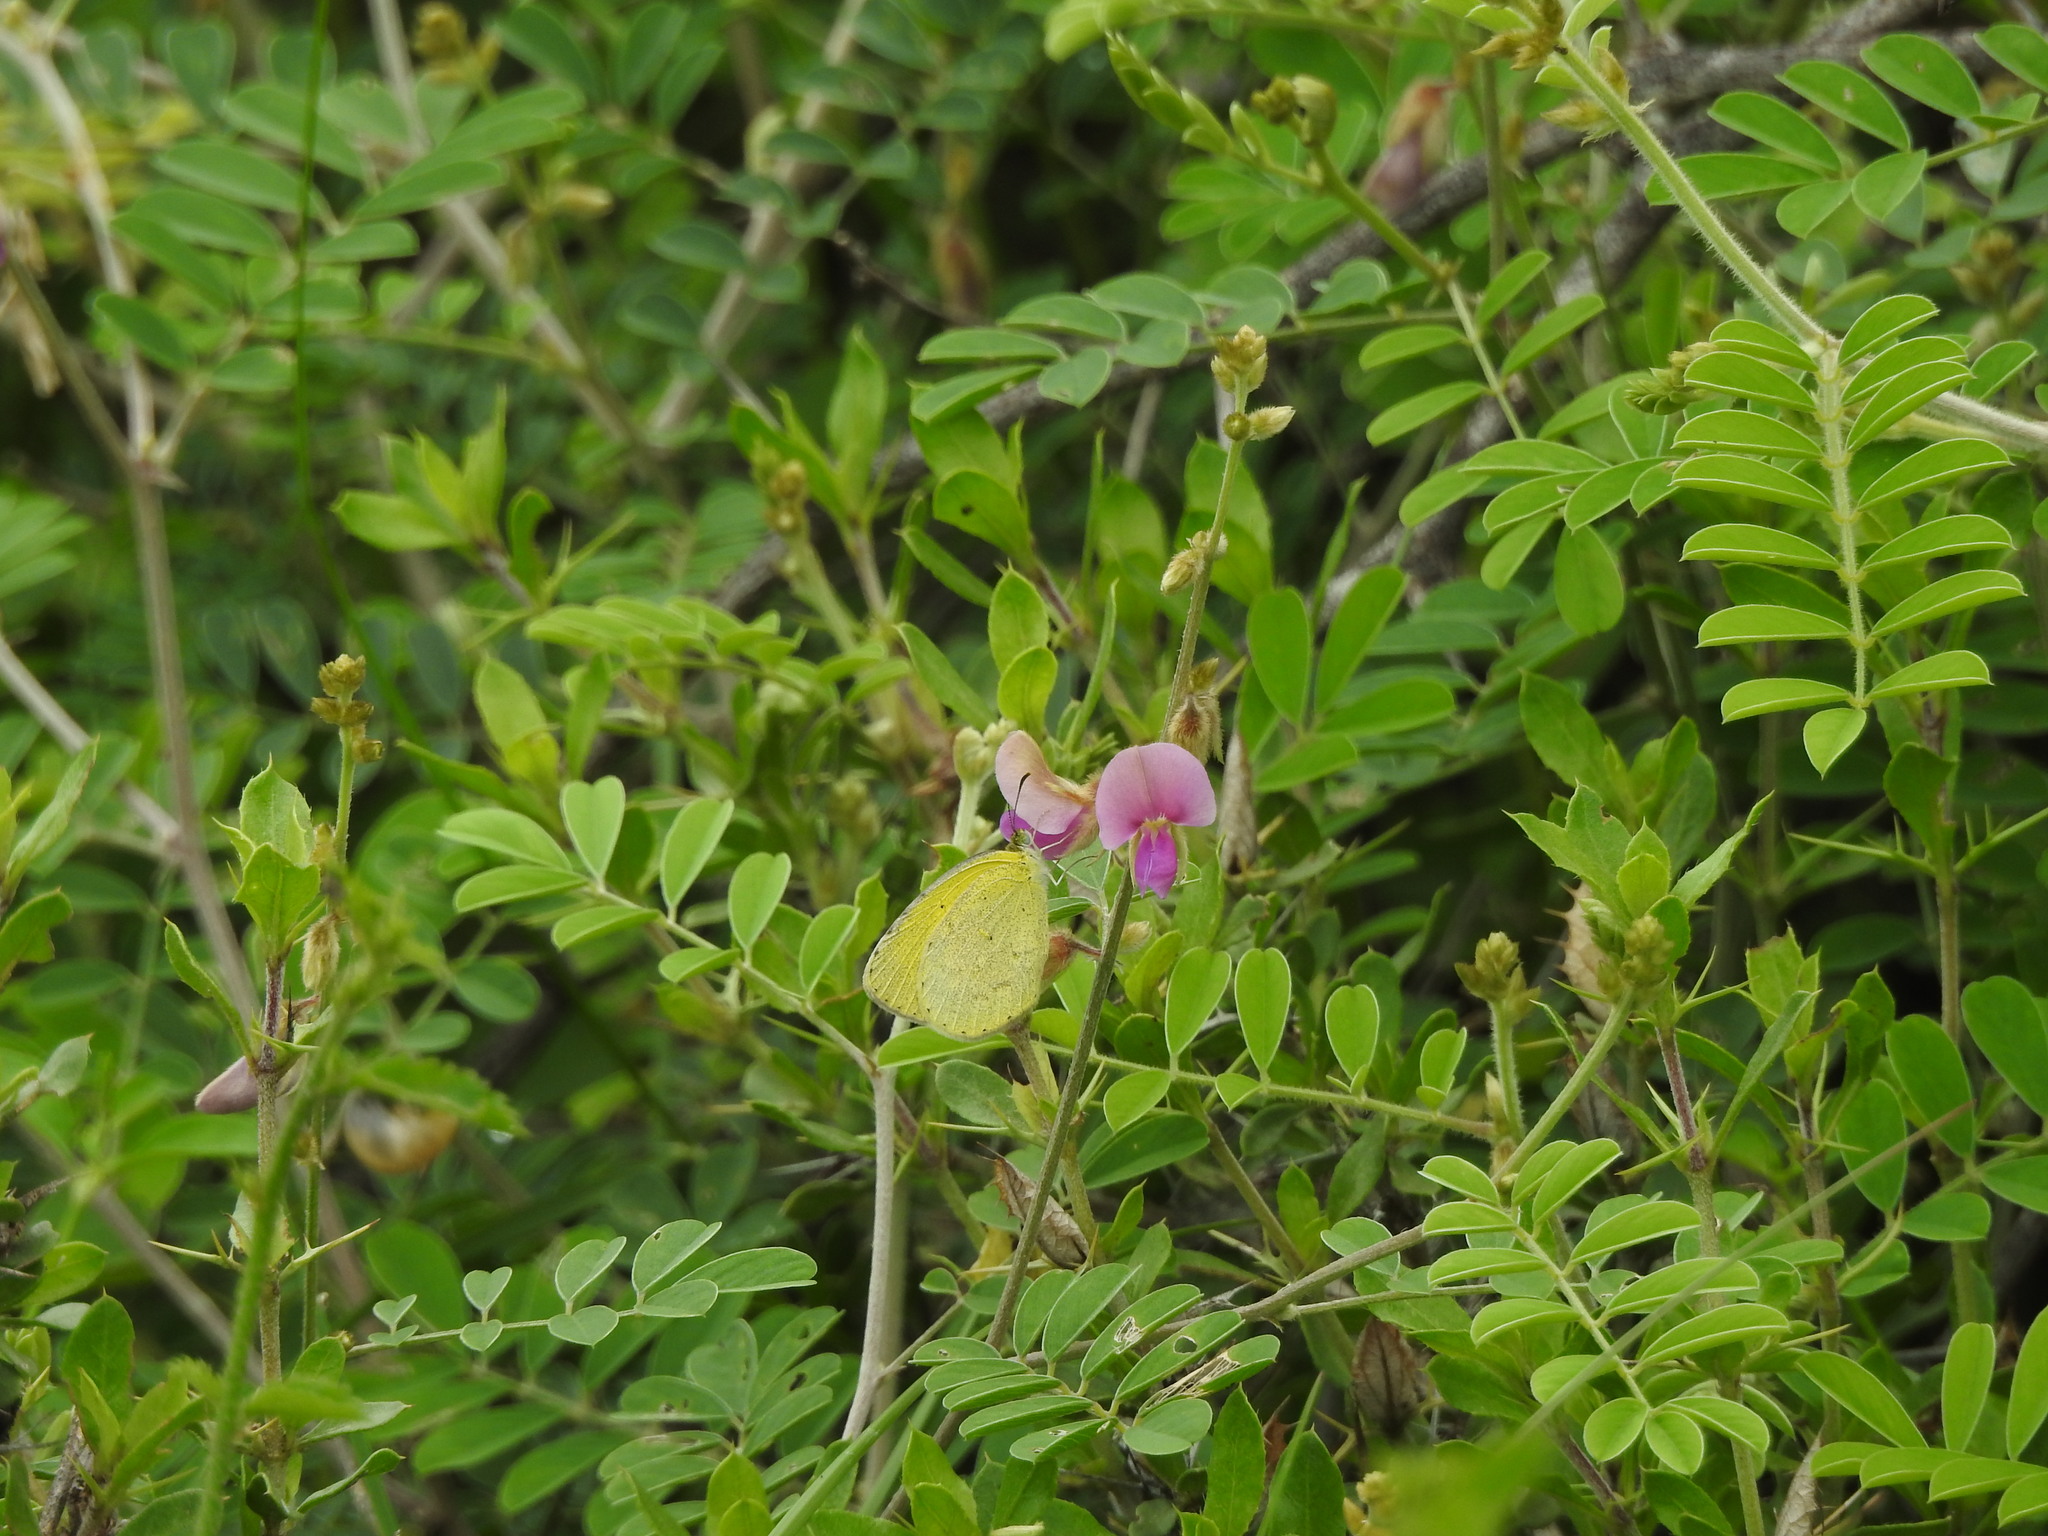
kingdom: Animalia
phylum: Arthropoda
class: Insecta
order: Lepidoptera
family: Pieridae
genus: Eurema
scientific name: Eurema brigitta
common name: Small grass yellow
